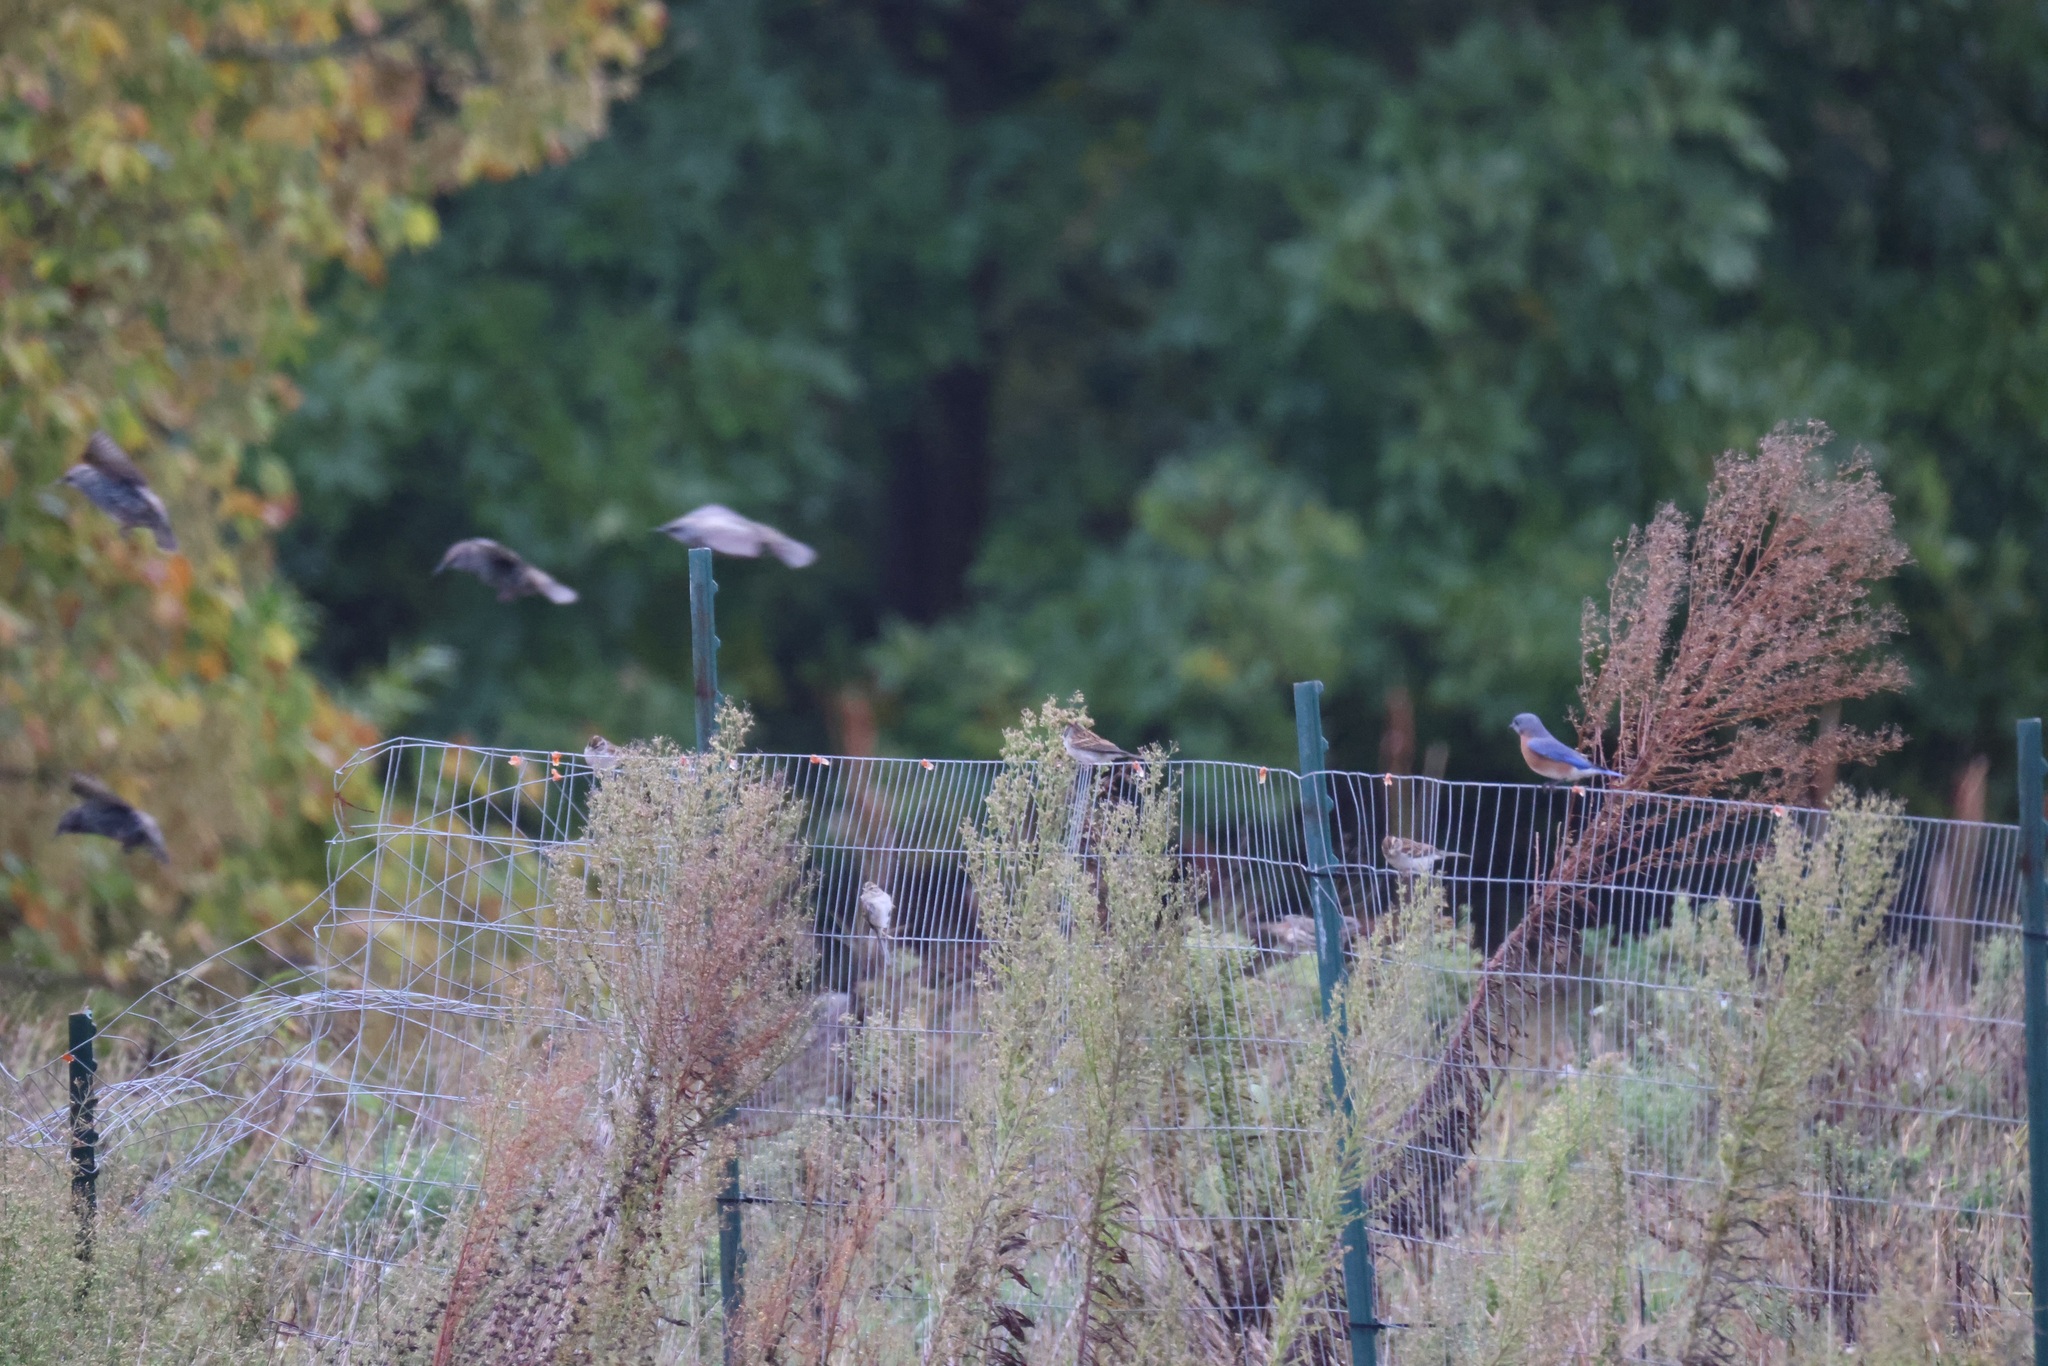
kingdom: Animalia
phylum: Chordata
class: Aves
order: Passeriformes
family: Fringillidae
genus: Haemorhous
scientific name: Haemorhous mexicanus
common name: House finch
